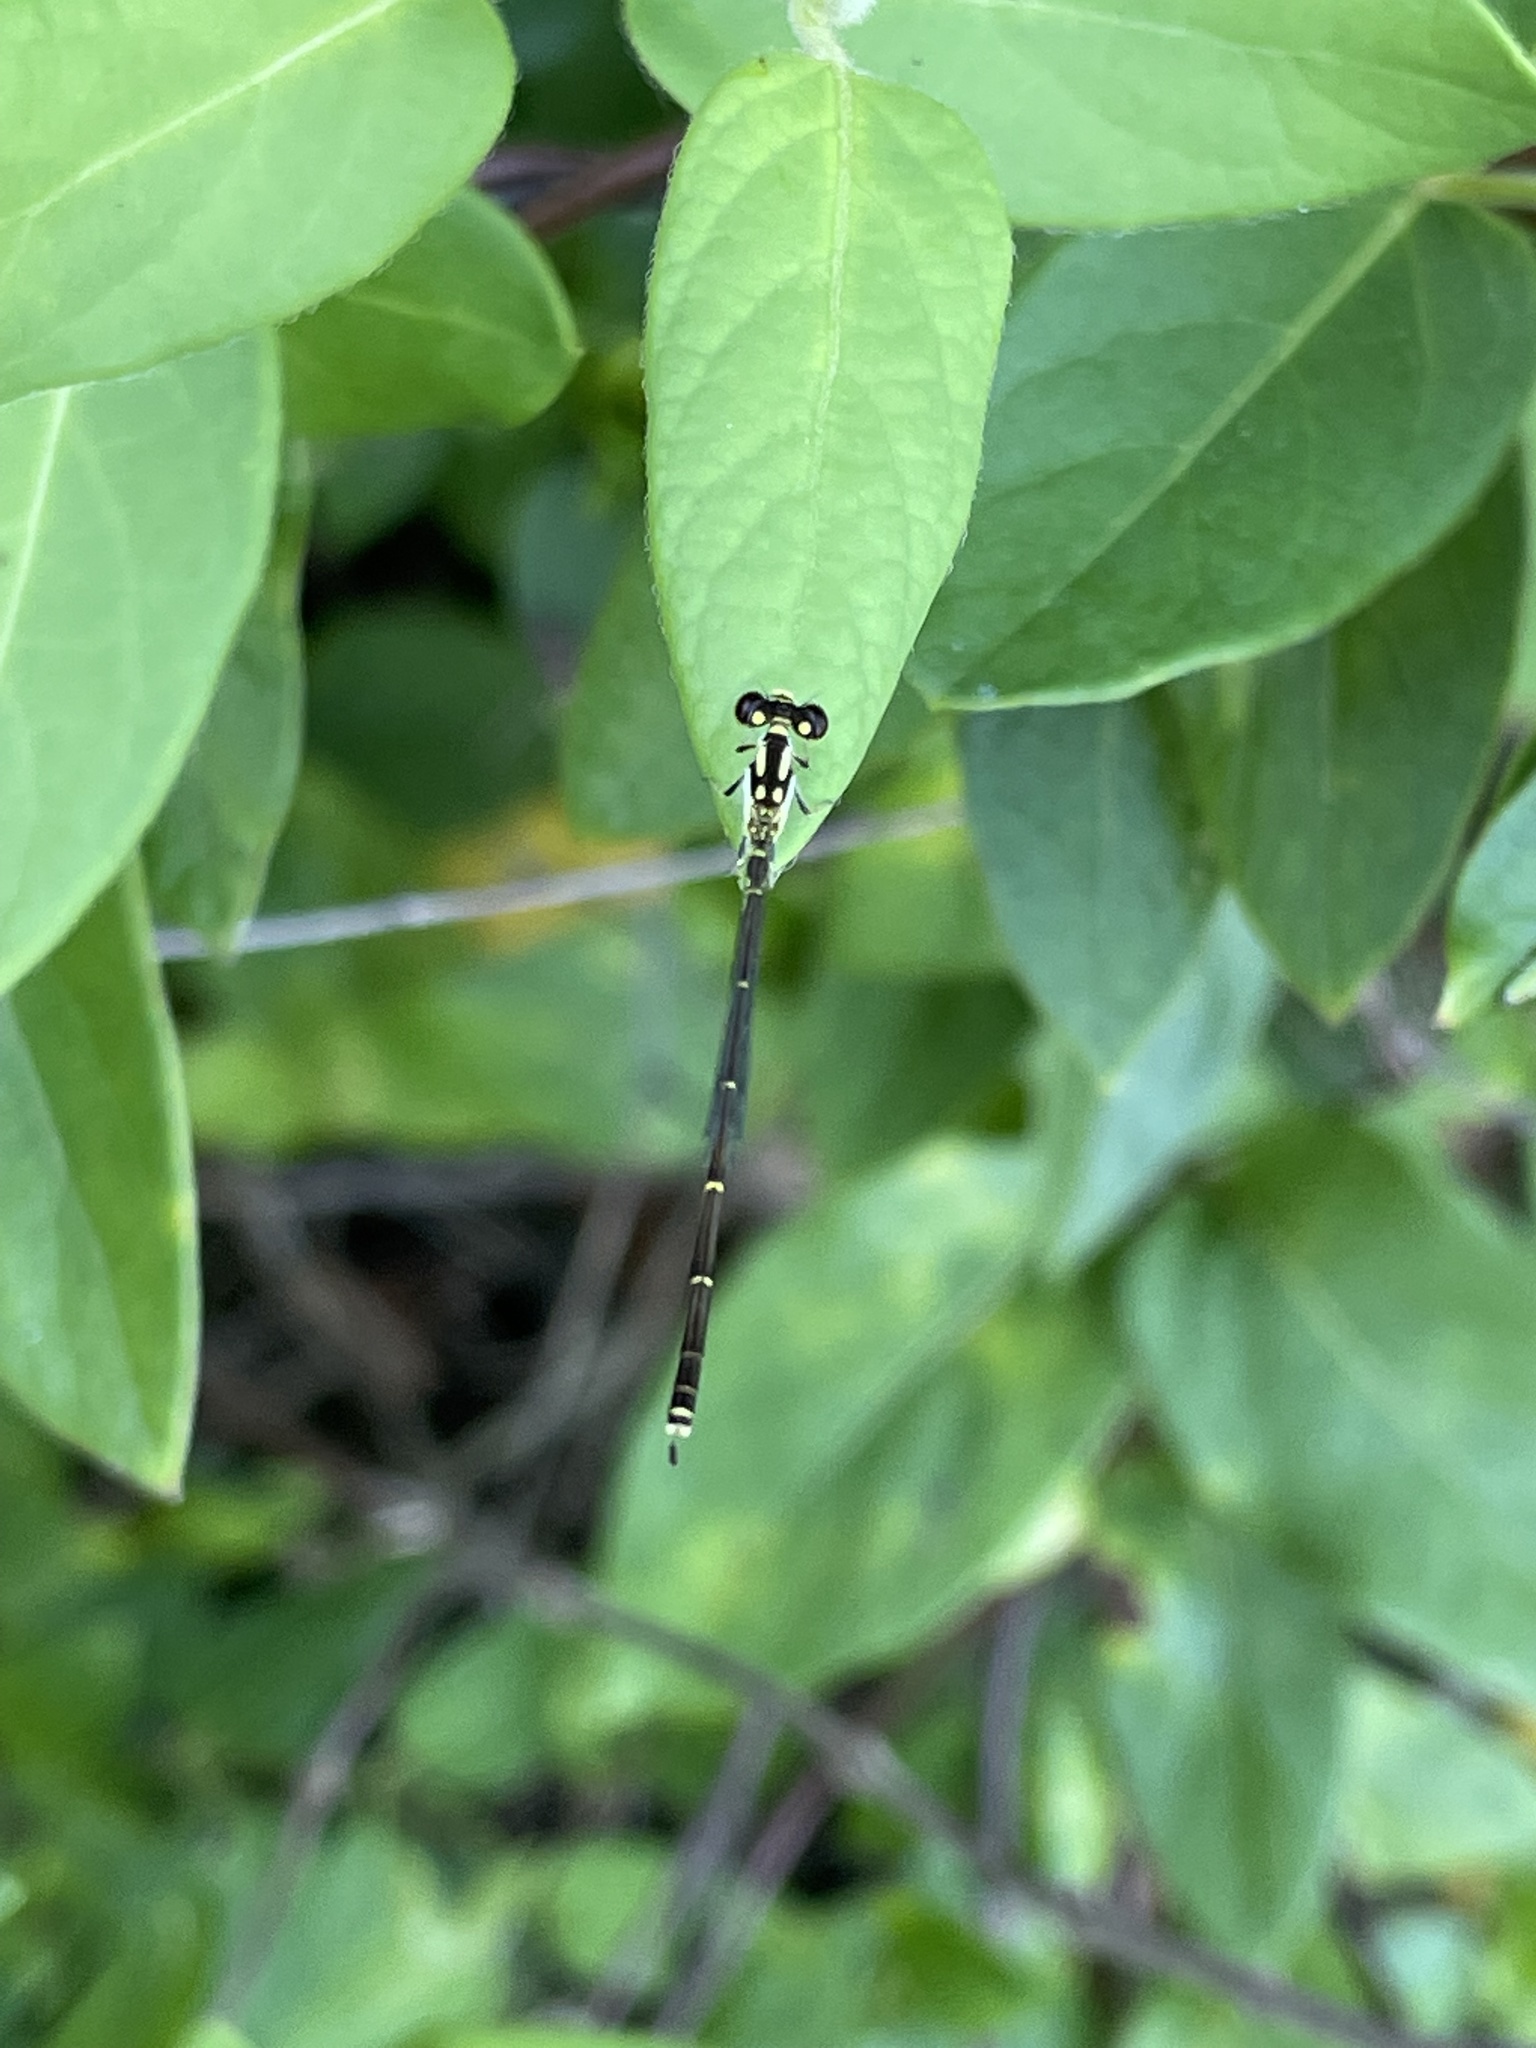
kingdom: Animalia
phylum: Arthropoda
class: Insecta
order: Odonata
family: Coenagrionidae
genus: Ischnura
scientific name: Ischnura posita
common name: Fragile forktail
